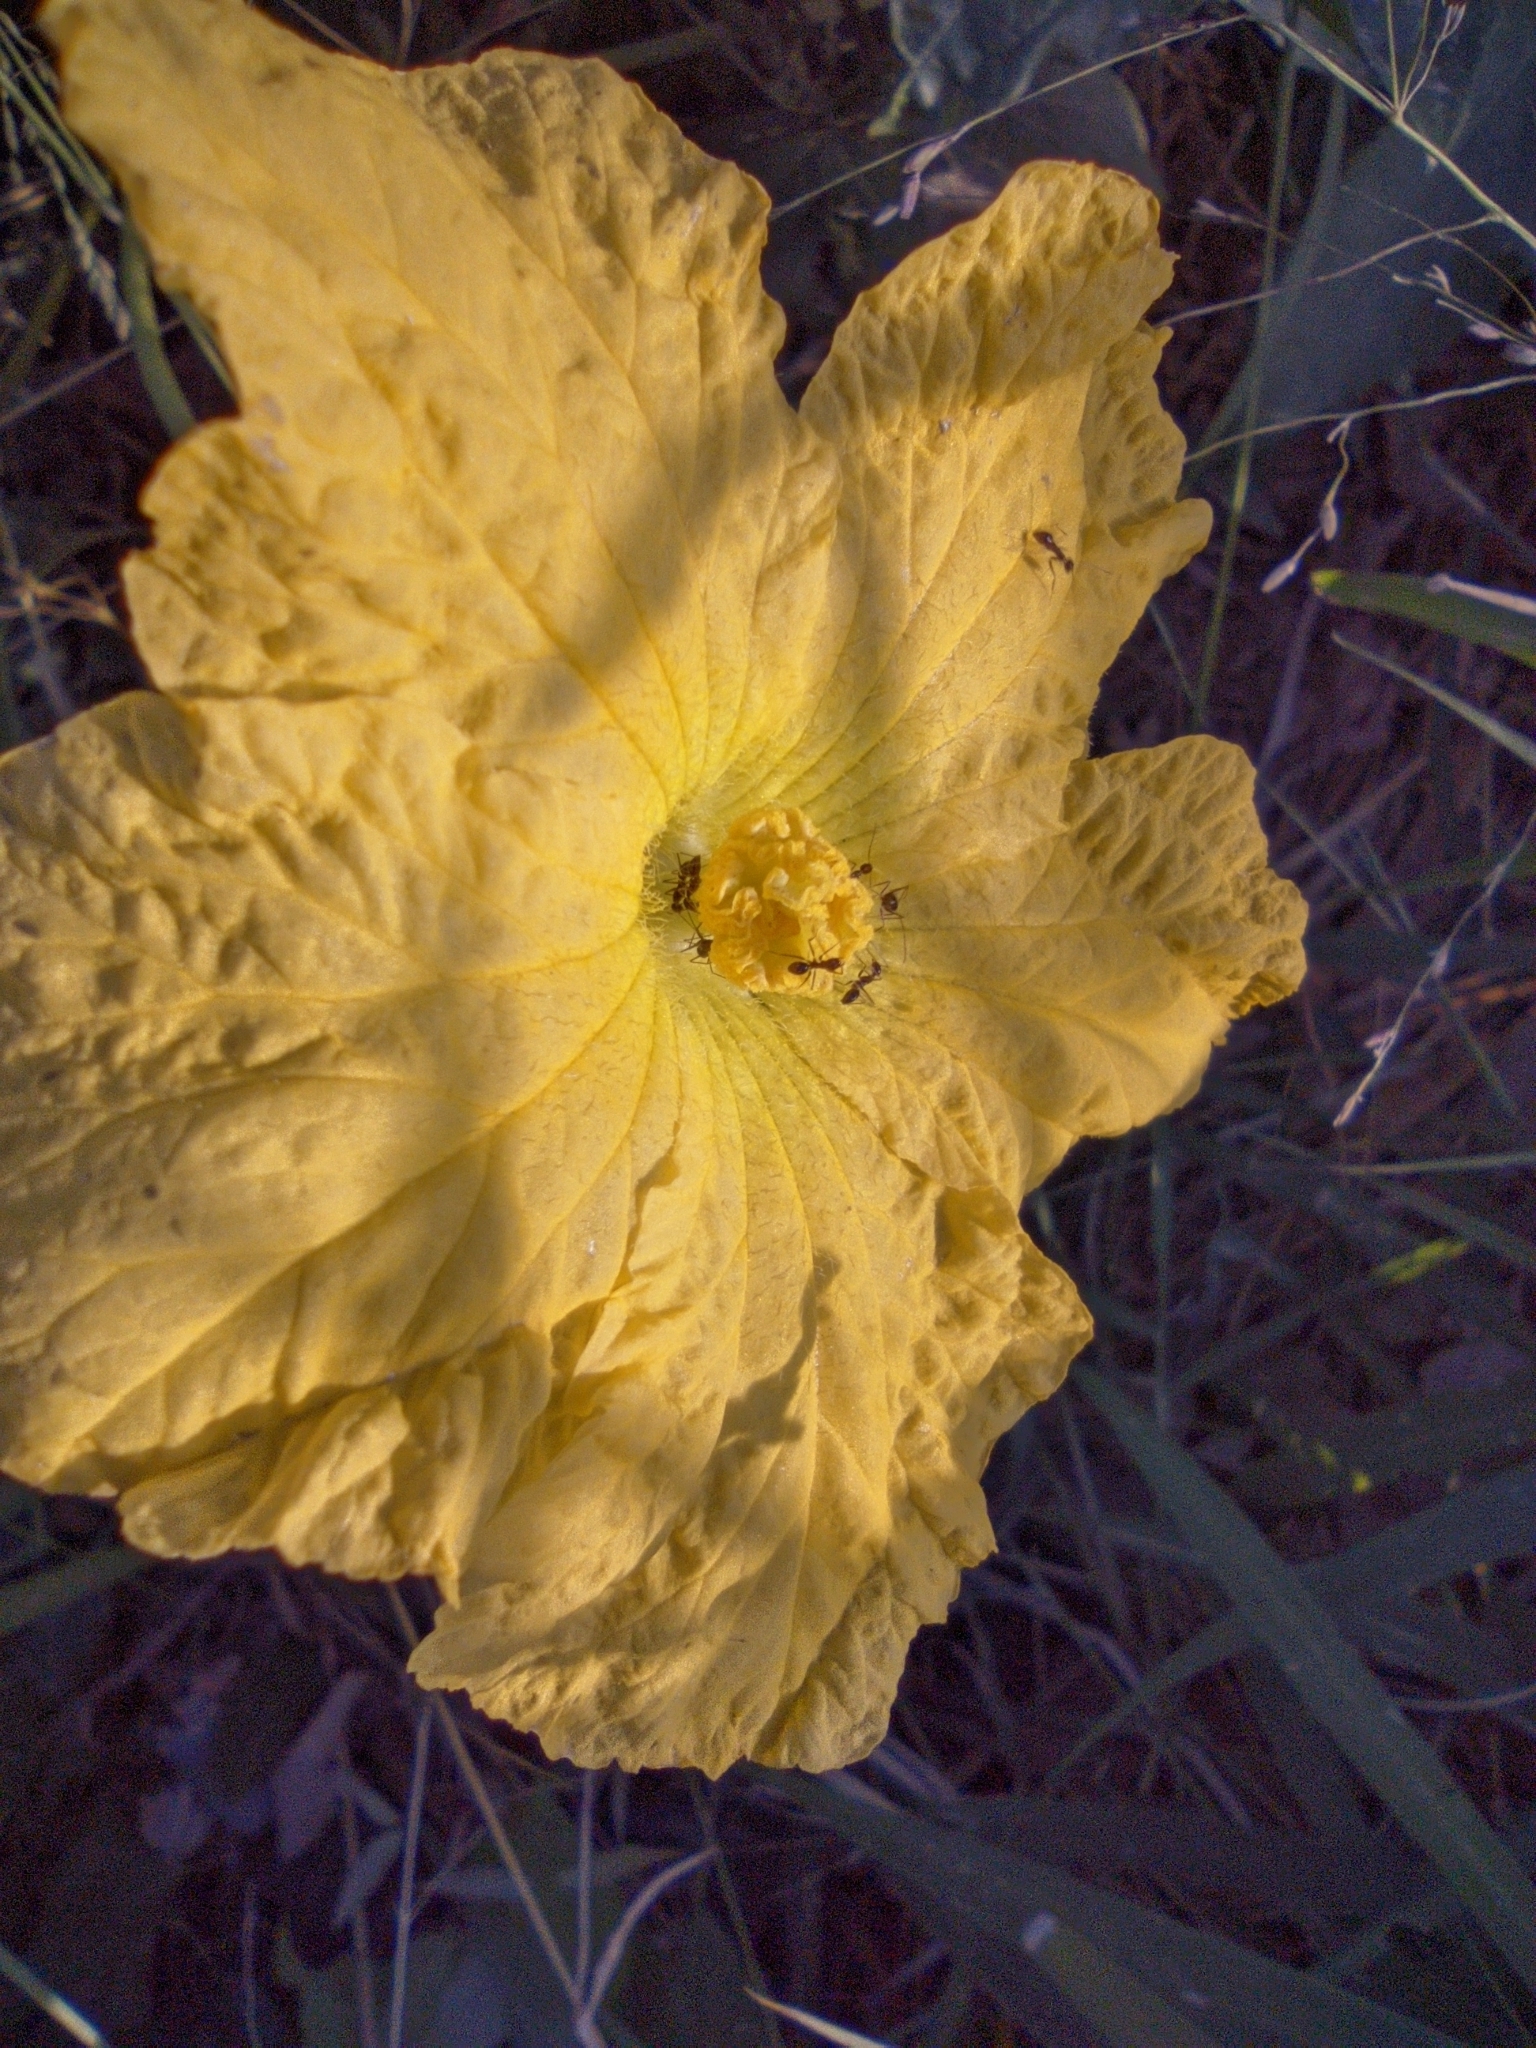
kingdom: Animalia
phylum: Arthropoda
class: Insecta
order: Hymenoptera
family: Formicidae
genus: Paratrechina
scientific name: Paratrechina longicornis
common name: Longhorned crazy ant
